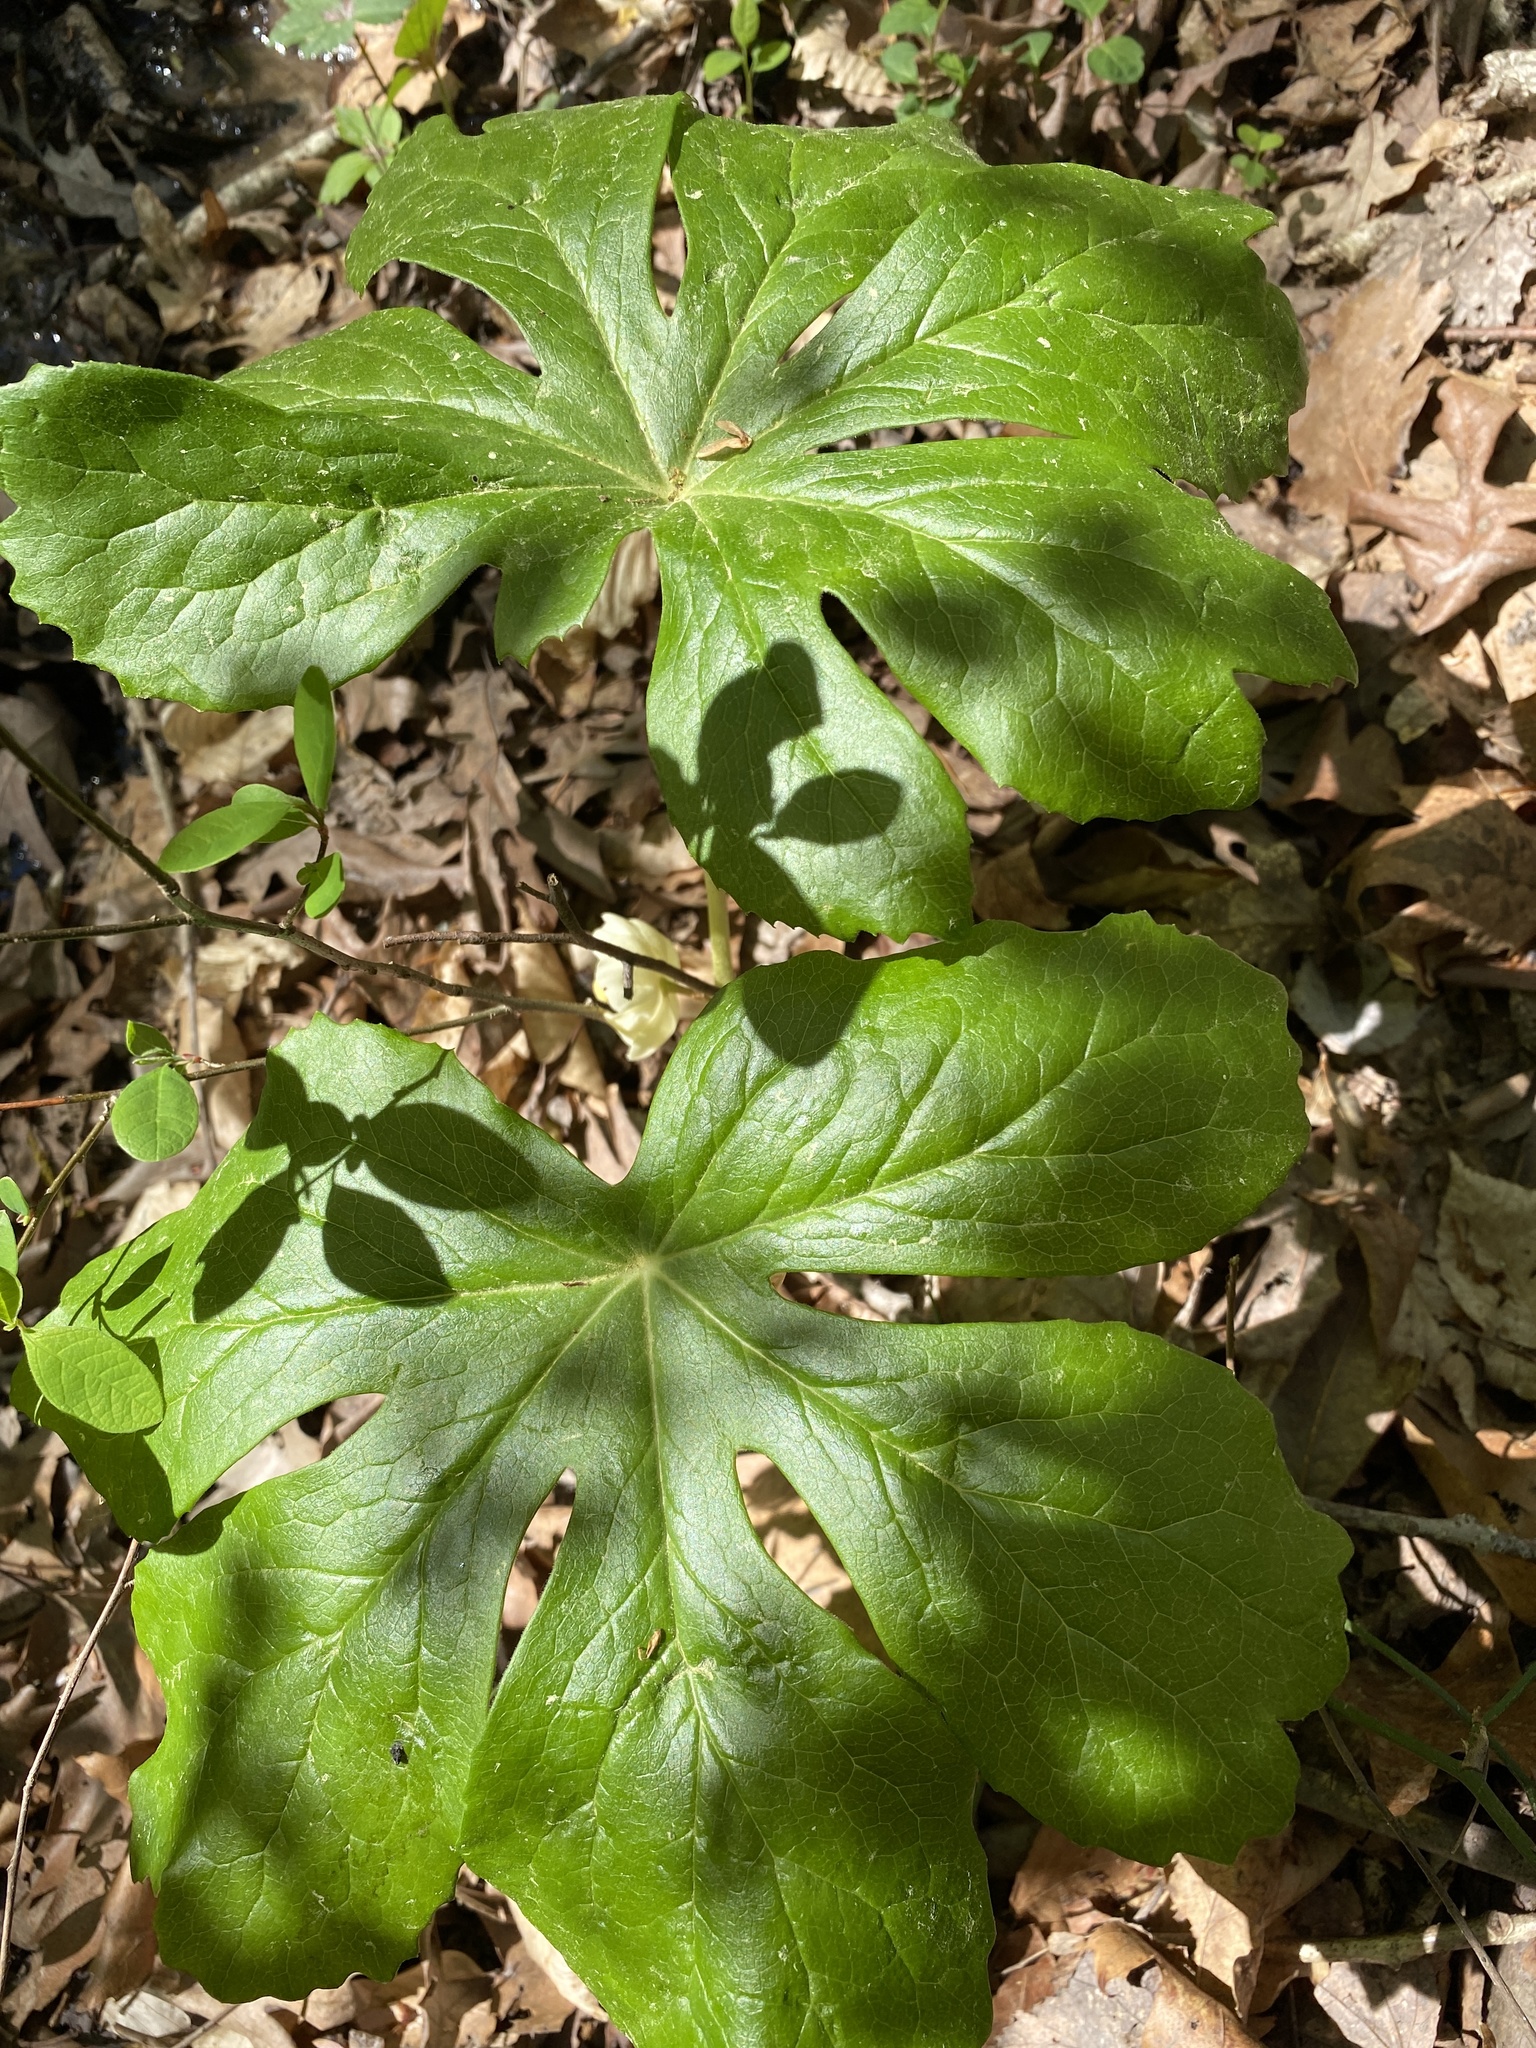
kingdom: Plantae
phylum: Tracheophyta
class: Magnoliopsida
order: Ranunculales
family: Berberidaceae
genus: Podophyllum
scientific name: Podophyllum peltatum
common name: Wild mandrake
